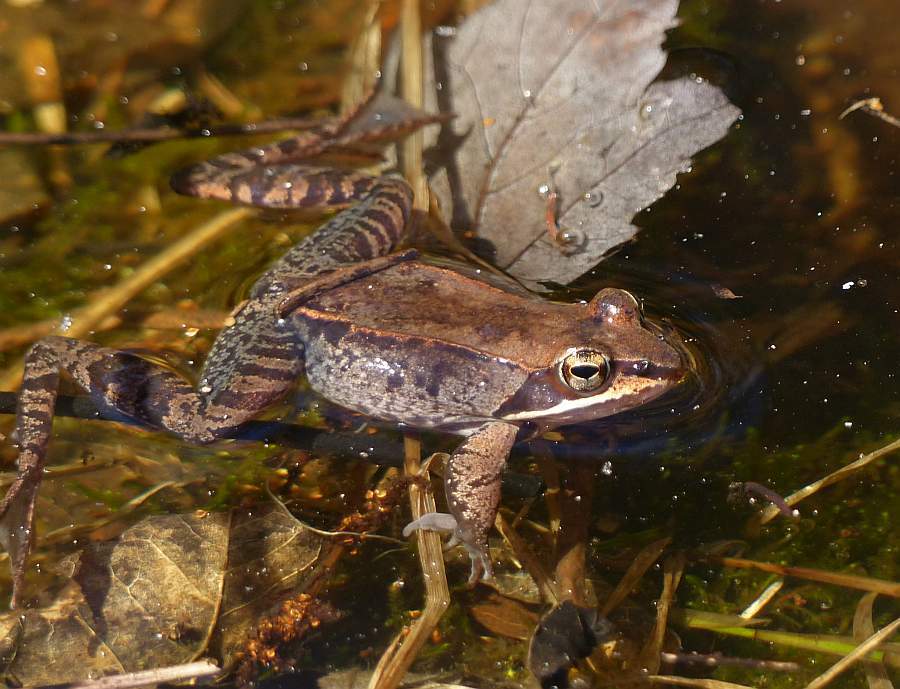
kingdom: Animalia
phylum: Chordata
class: Amphibia
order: Anura
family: Ranidae
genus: Lithobates
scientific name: Lithobates sylvaticus
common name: Wood frog
